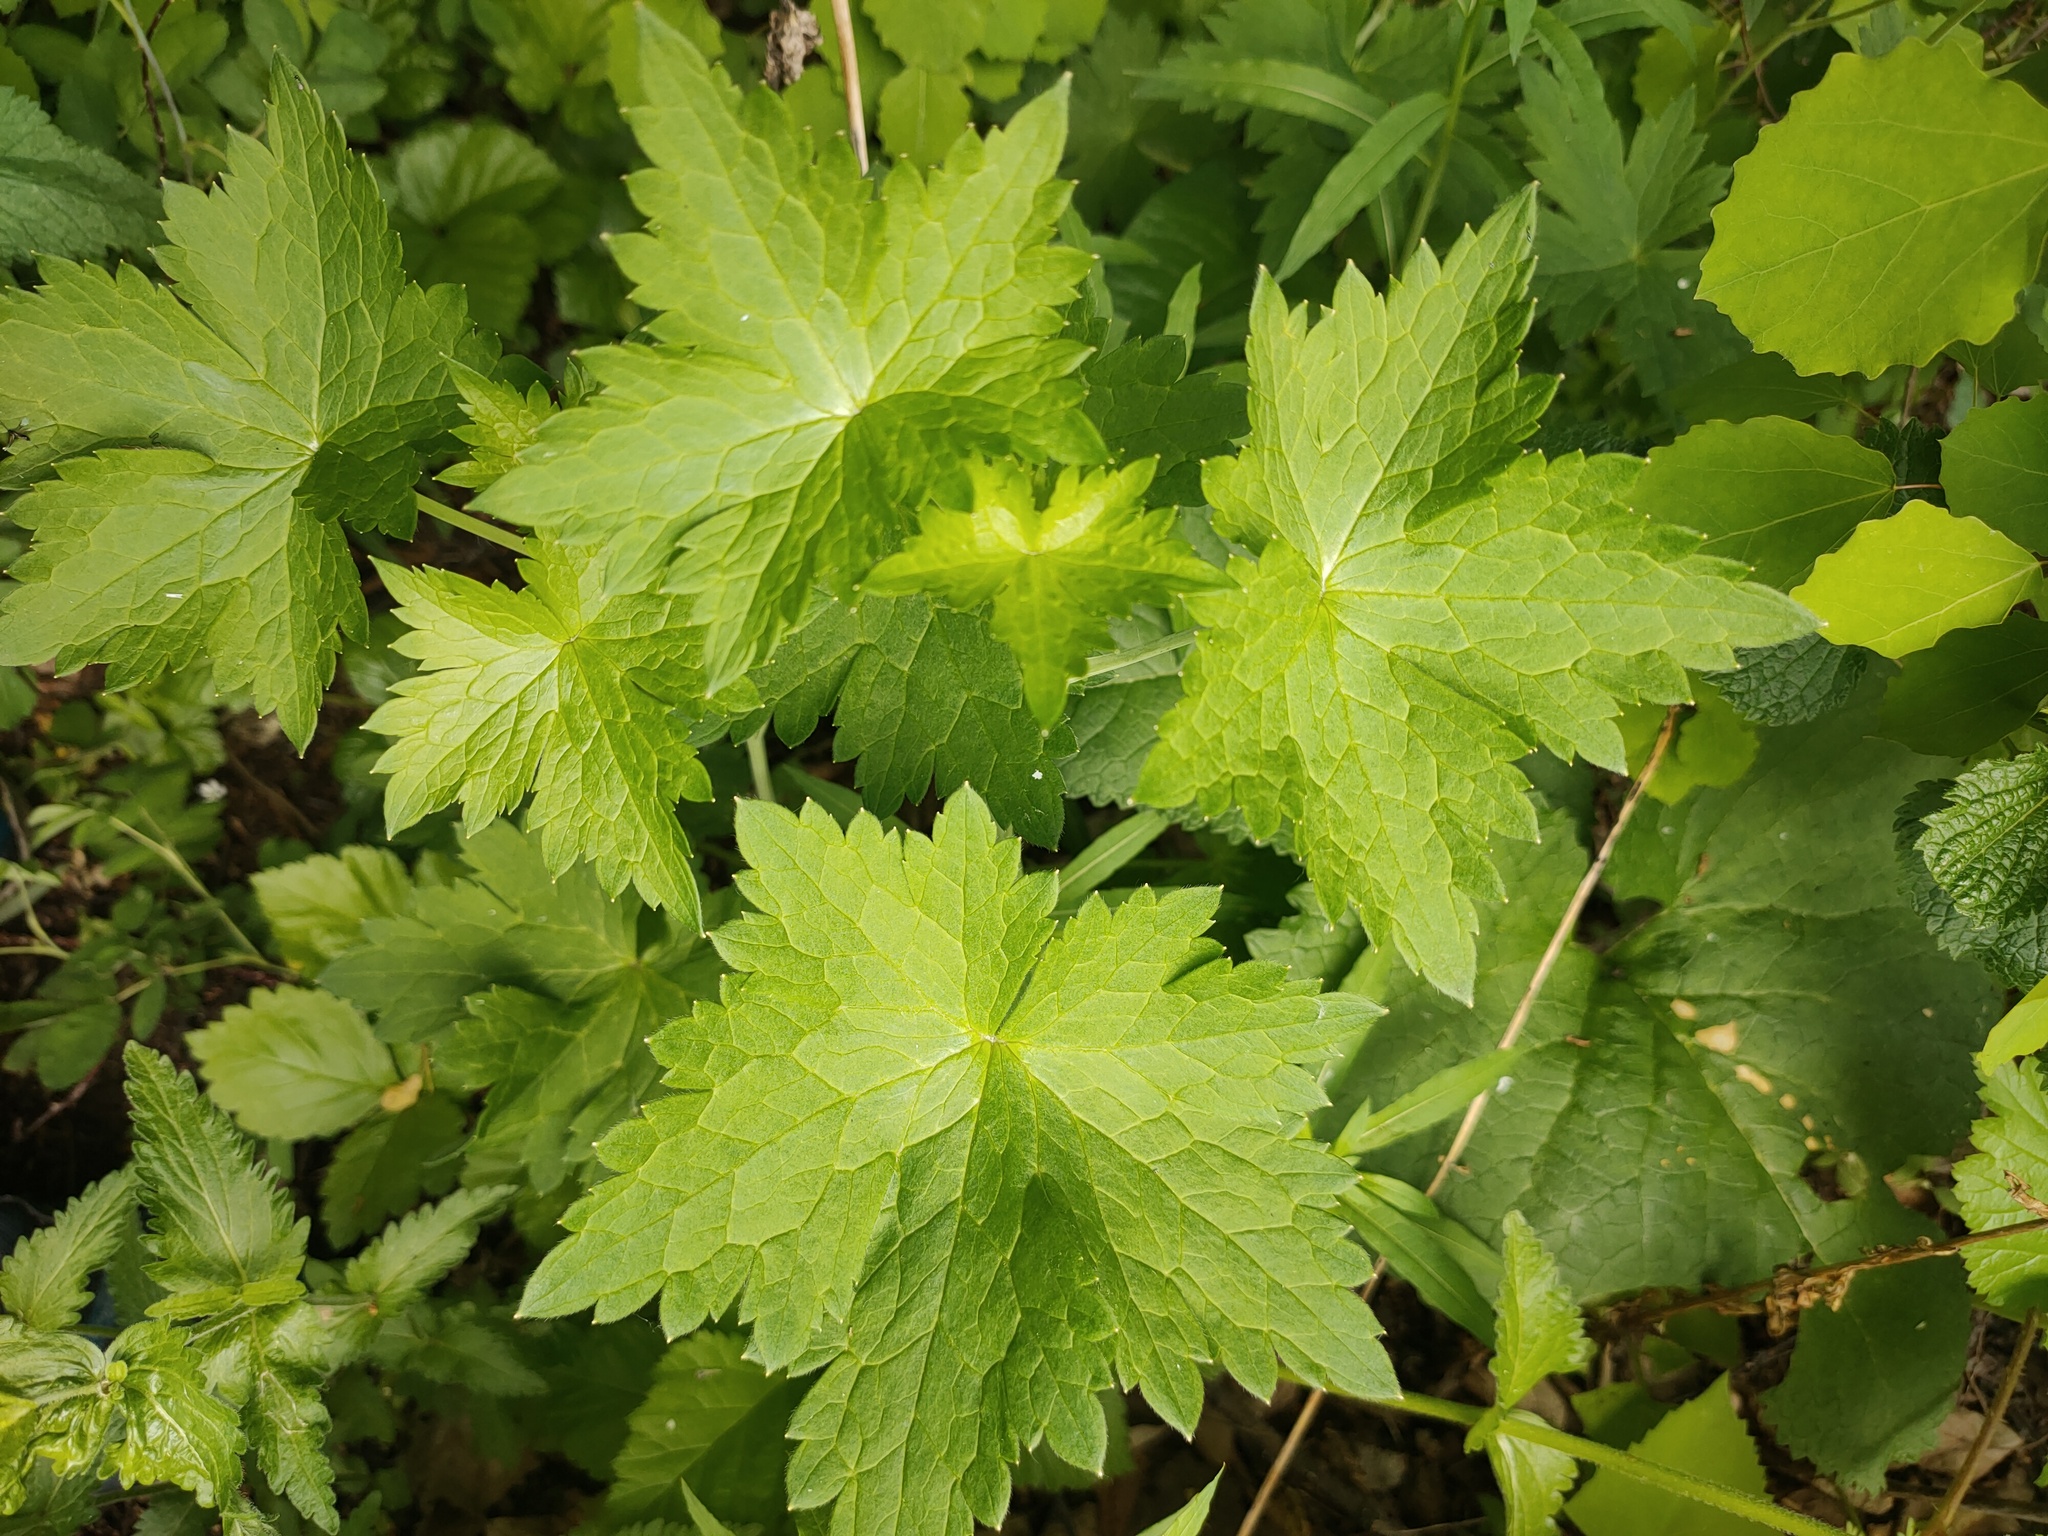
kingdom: Plantae
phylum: Tracheophyta
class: Magnoliopsida
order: Ranunculales
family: Ranunculaceae
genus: Delphinium
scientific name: Delphinium elatum
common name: Candle larkspur
